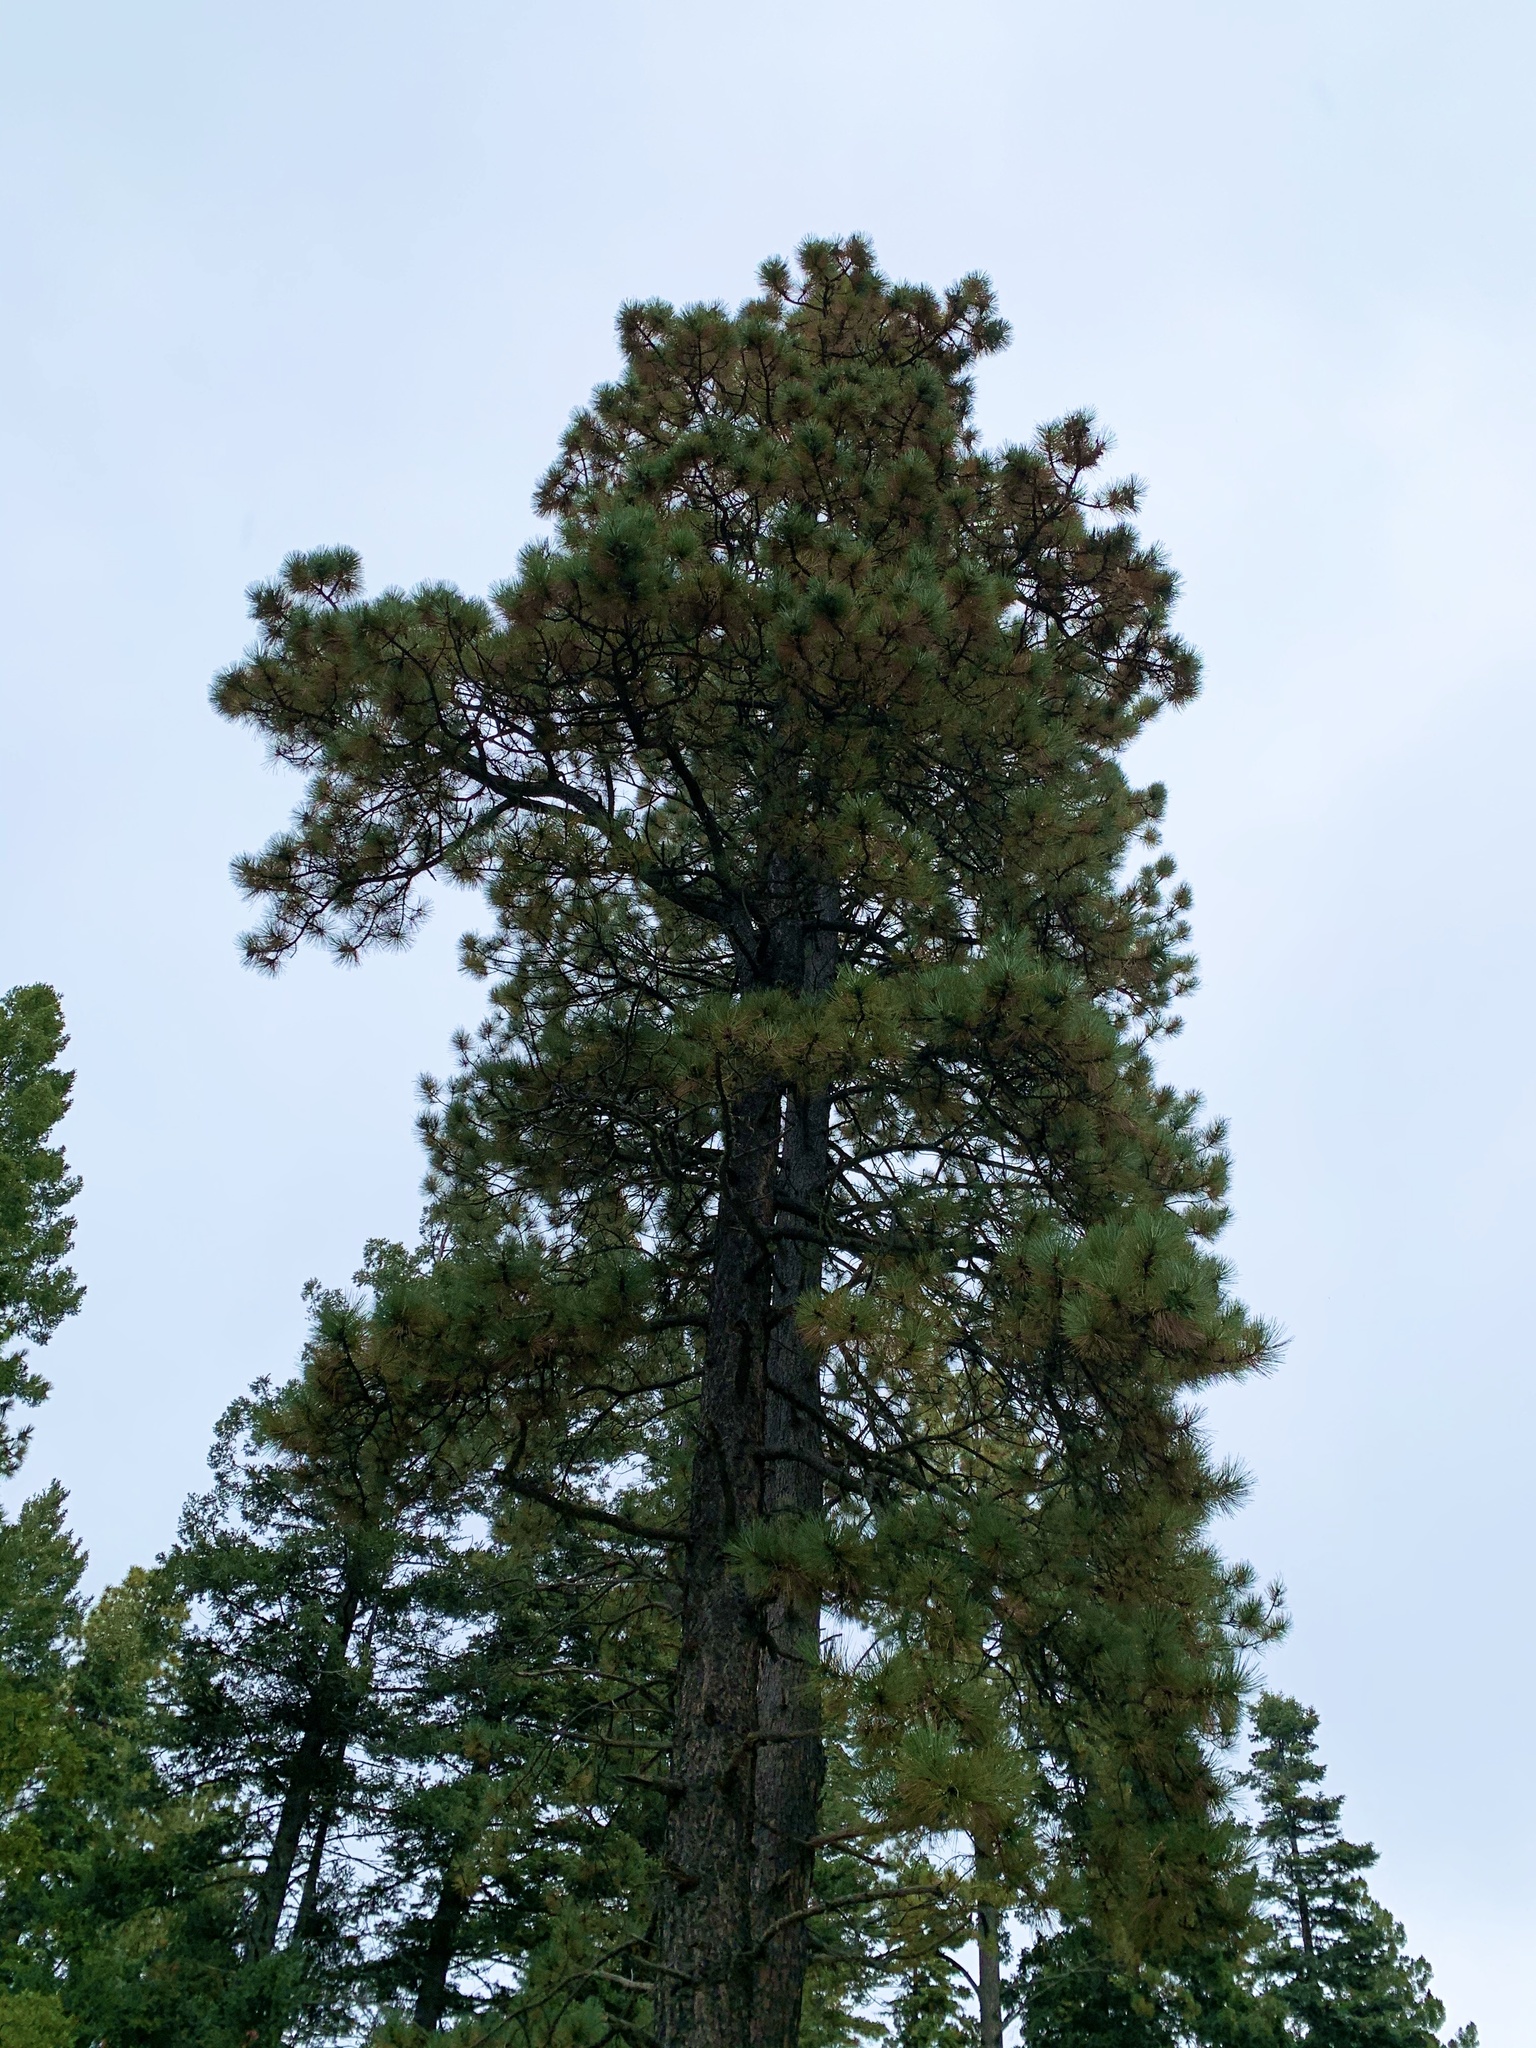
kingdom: Plantae
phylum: Tracheophyta
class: Pinopsida
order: Pinales
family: Pinaceae
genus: Pinus
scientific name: Pinus ponderosa
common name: Western yellow-pine
